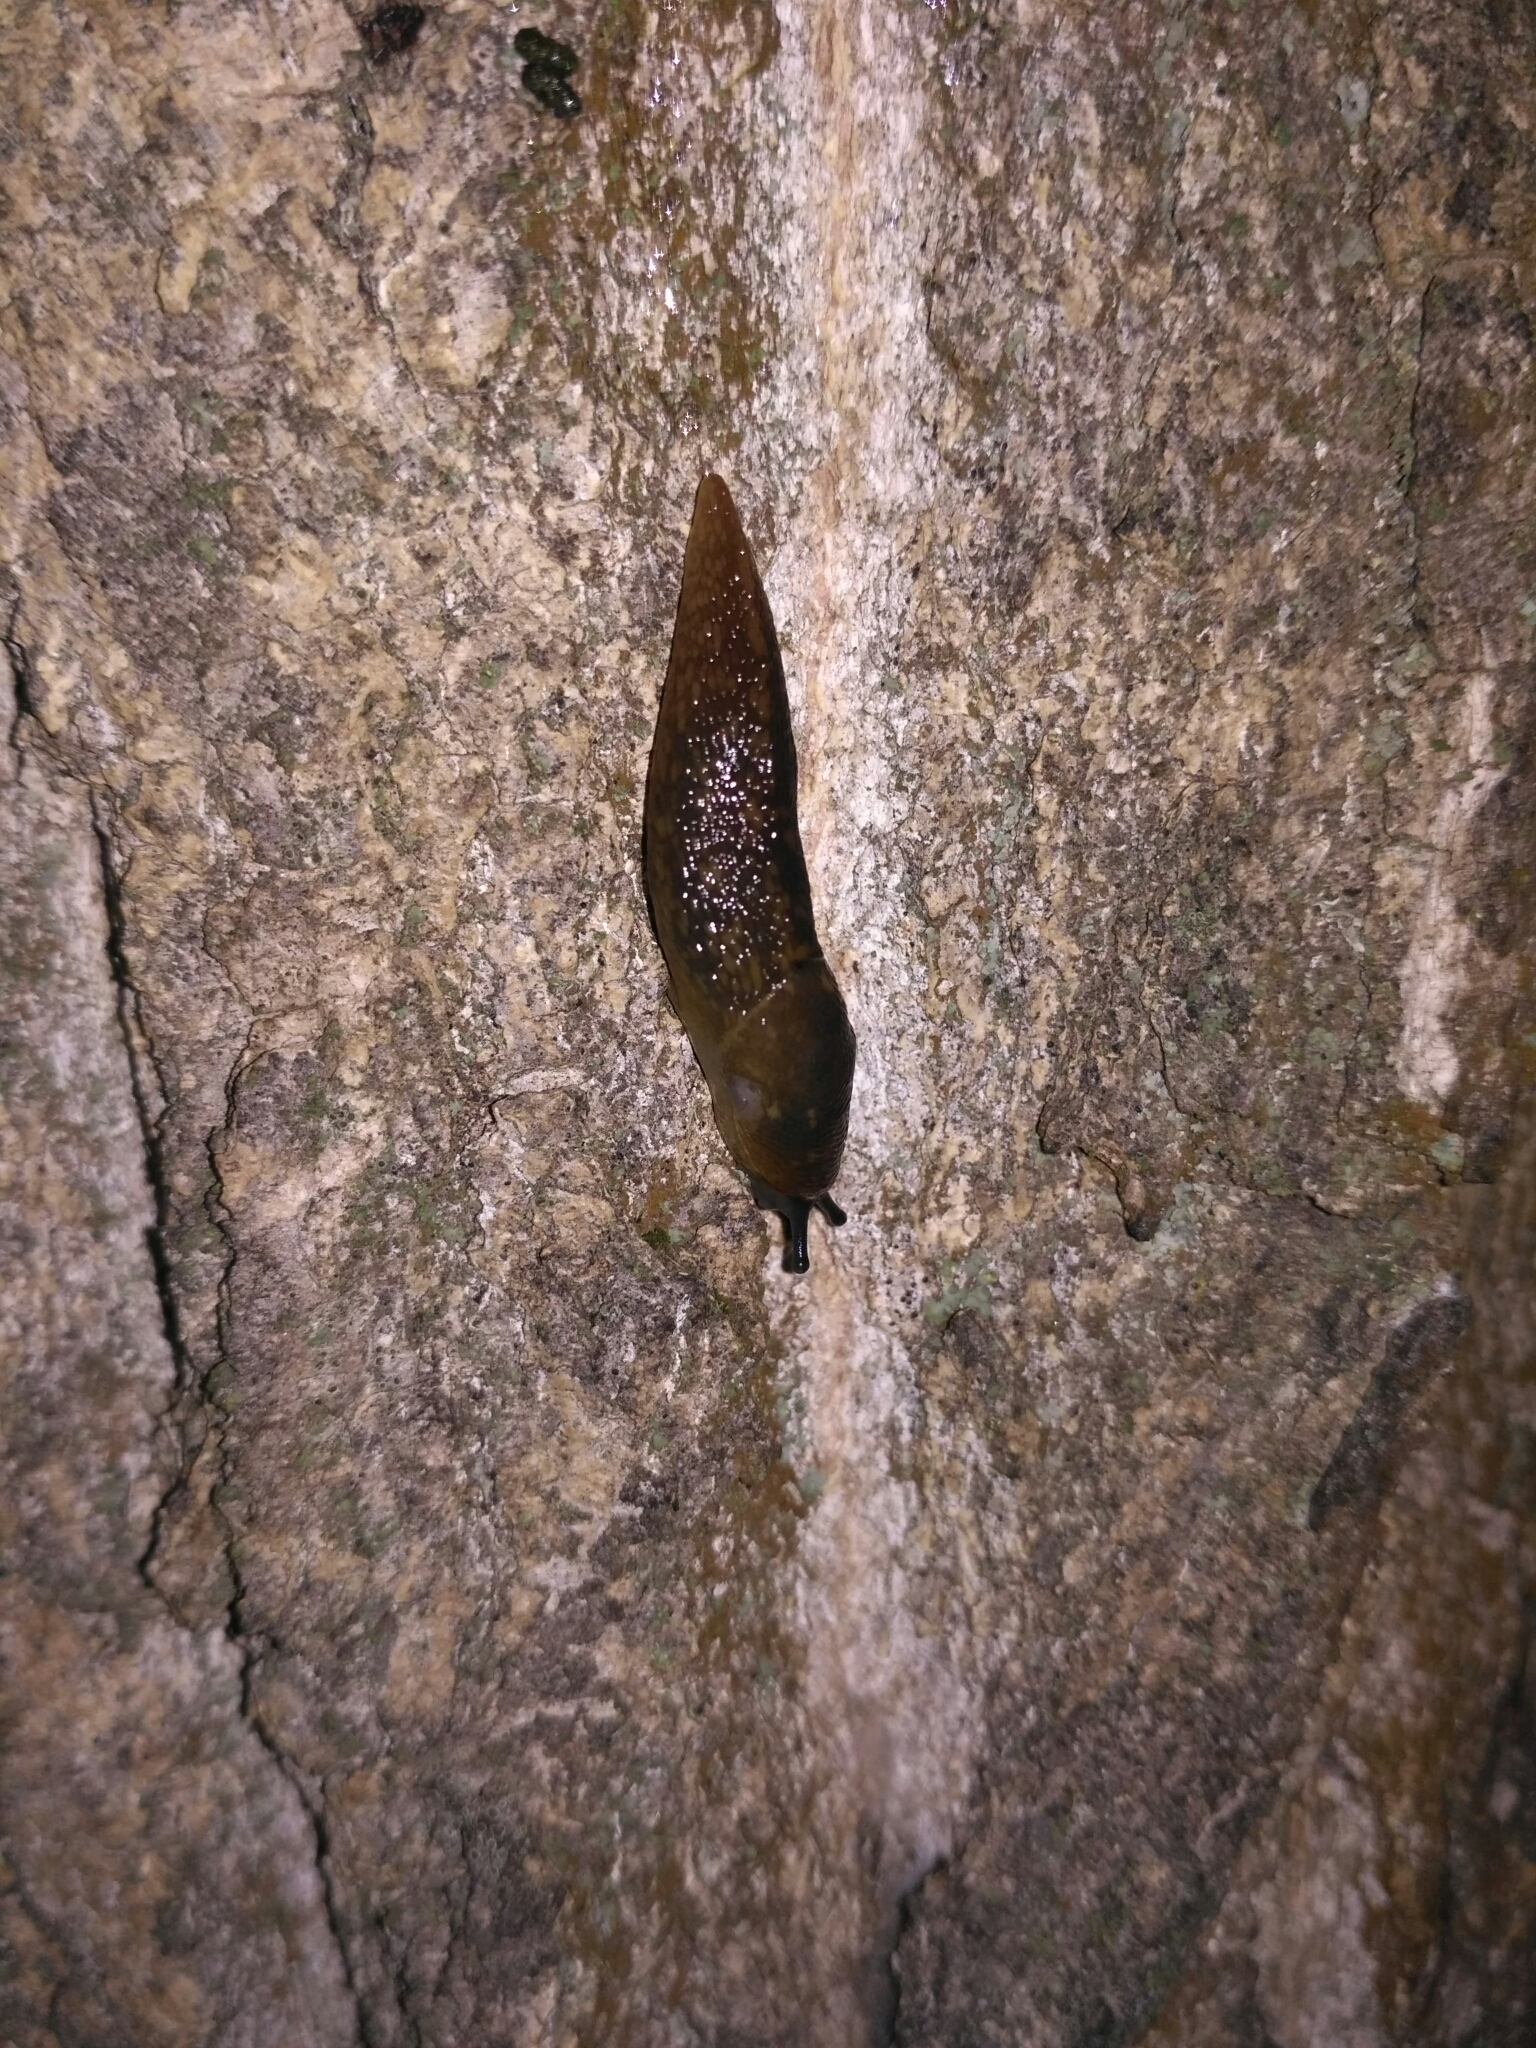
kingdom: Animalia
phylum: Mollusca
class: Gastropoda
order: Stylommatophora
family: Limacidae
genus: Limacus
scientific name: Limacus flavus
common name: Yellow gardenslug
